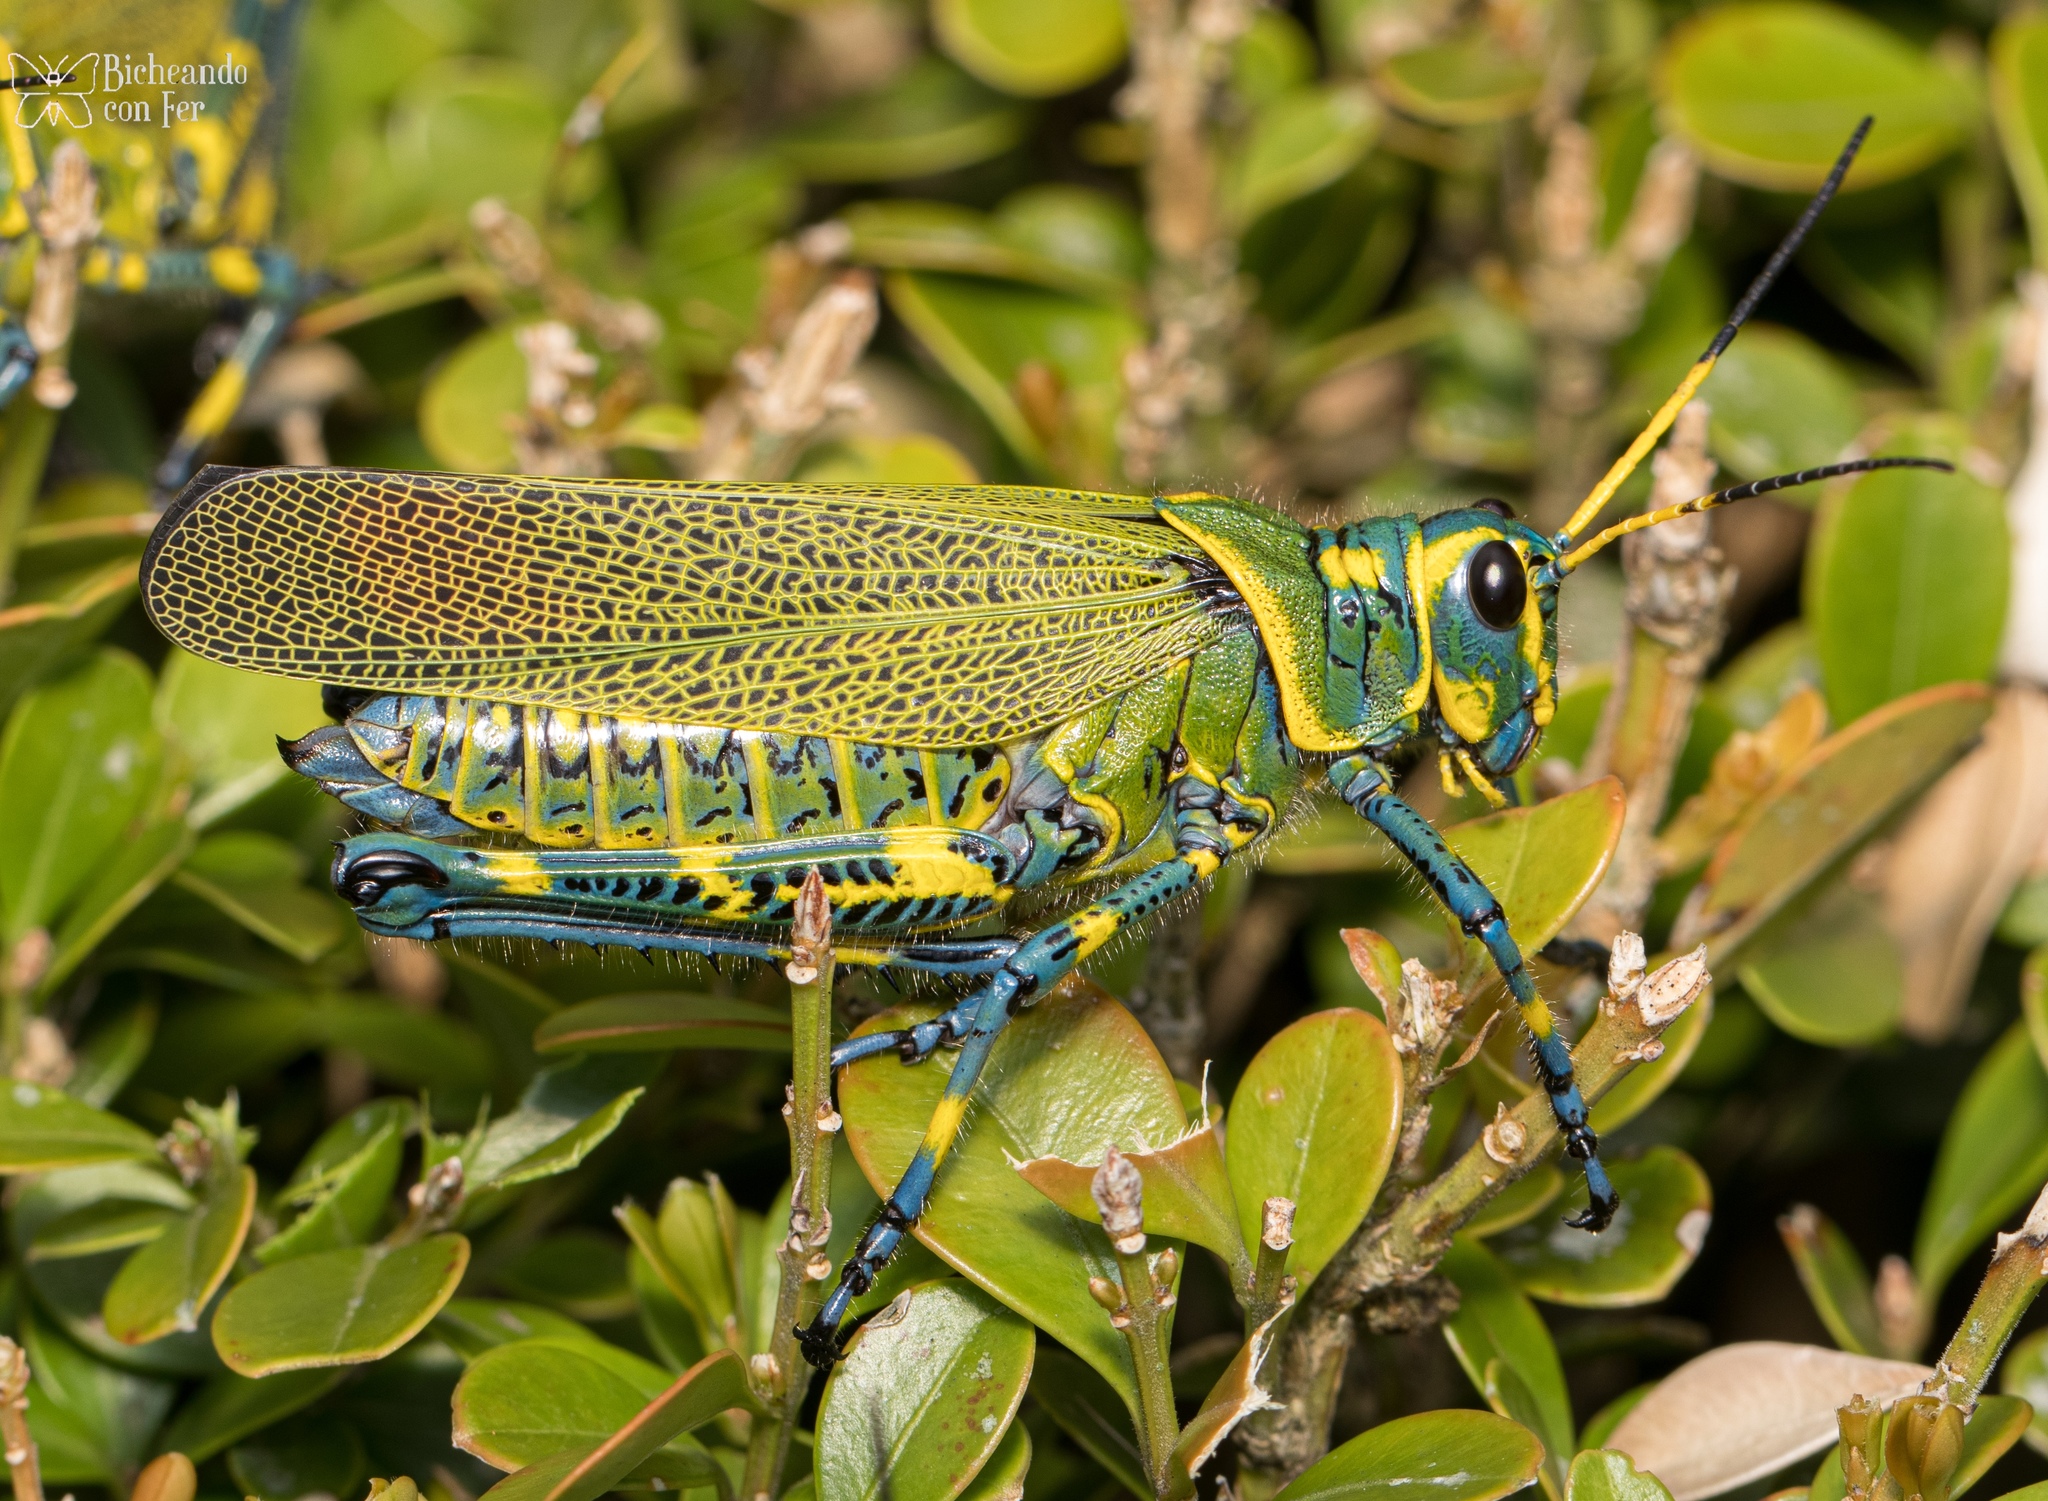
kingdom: Animalia
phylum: Arthropoda
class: Insecta
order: Orthoptera
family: Romaleidae
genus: Chromacris
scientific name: Chromacris colorata
